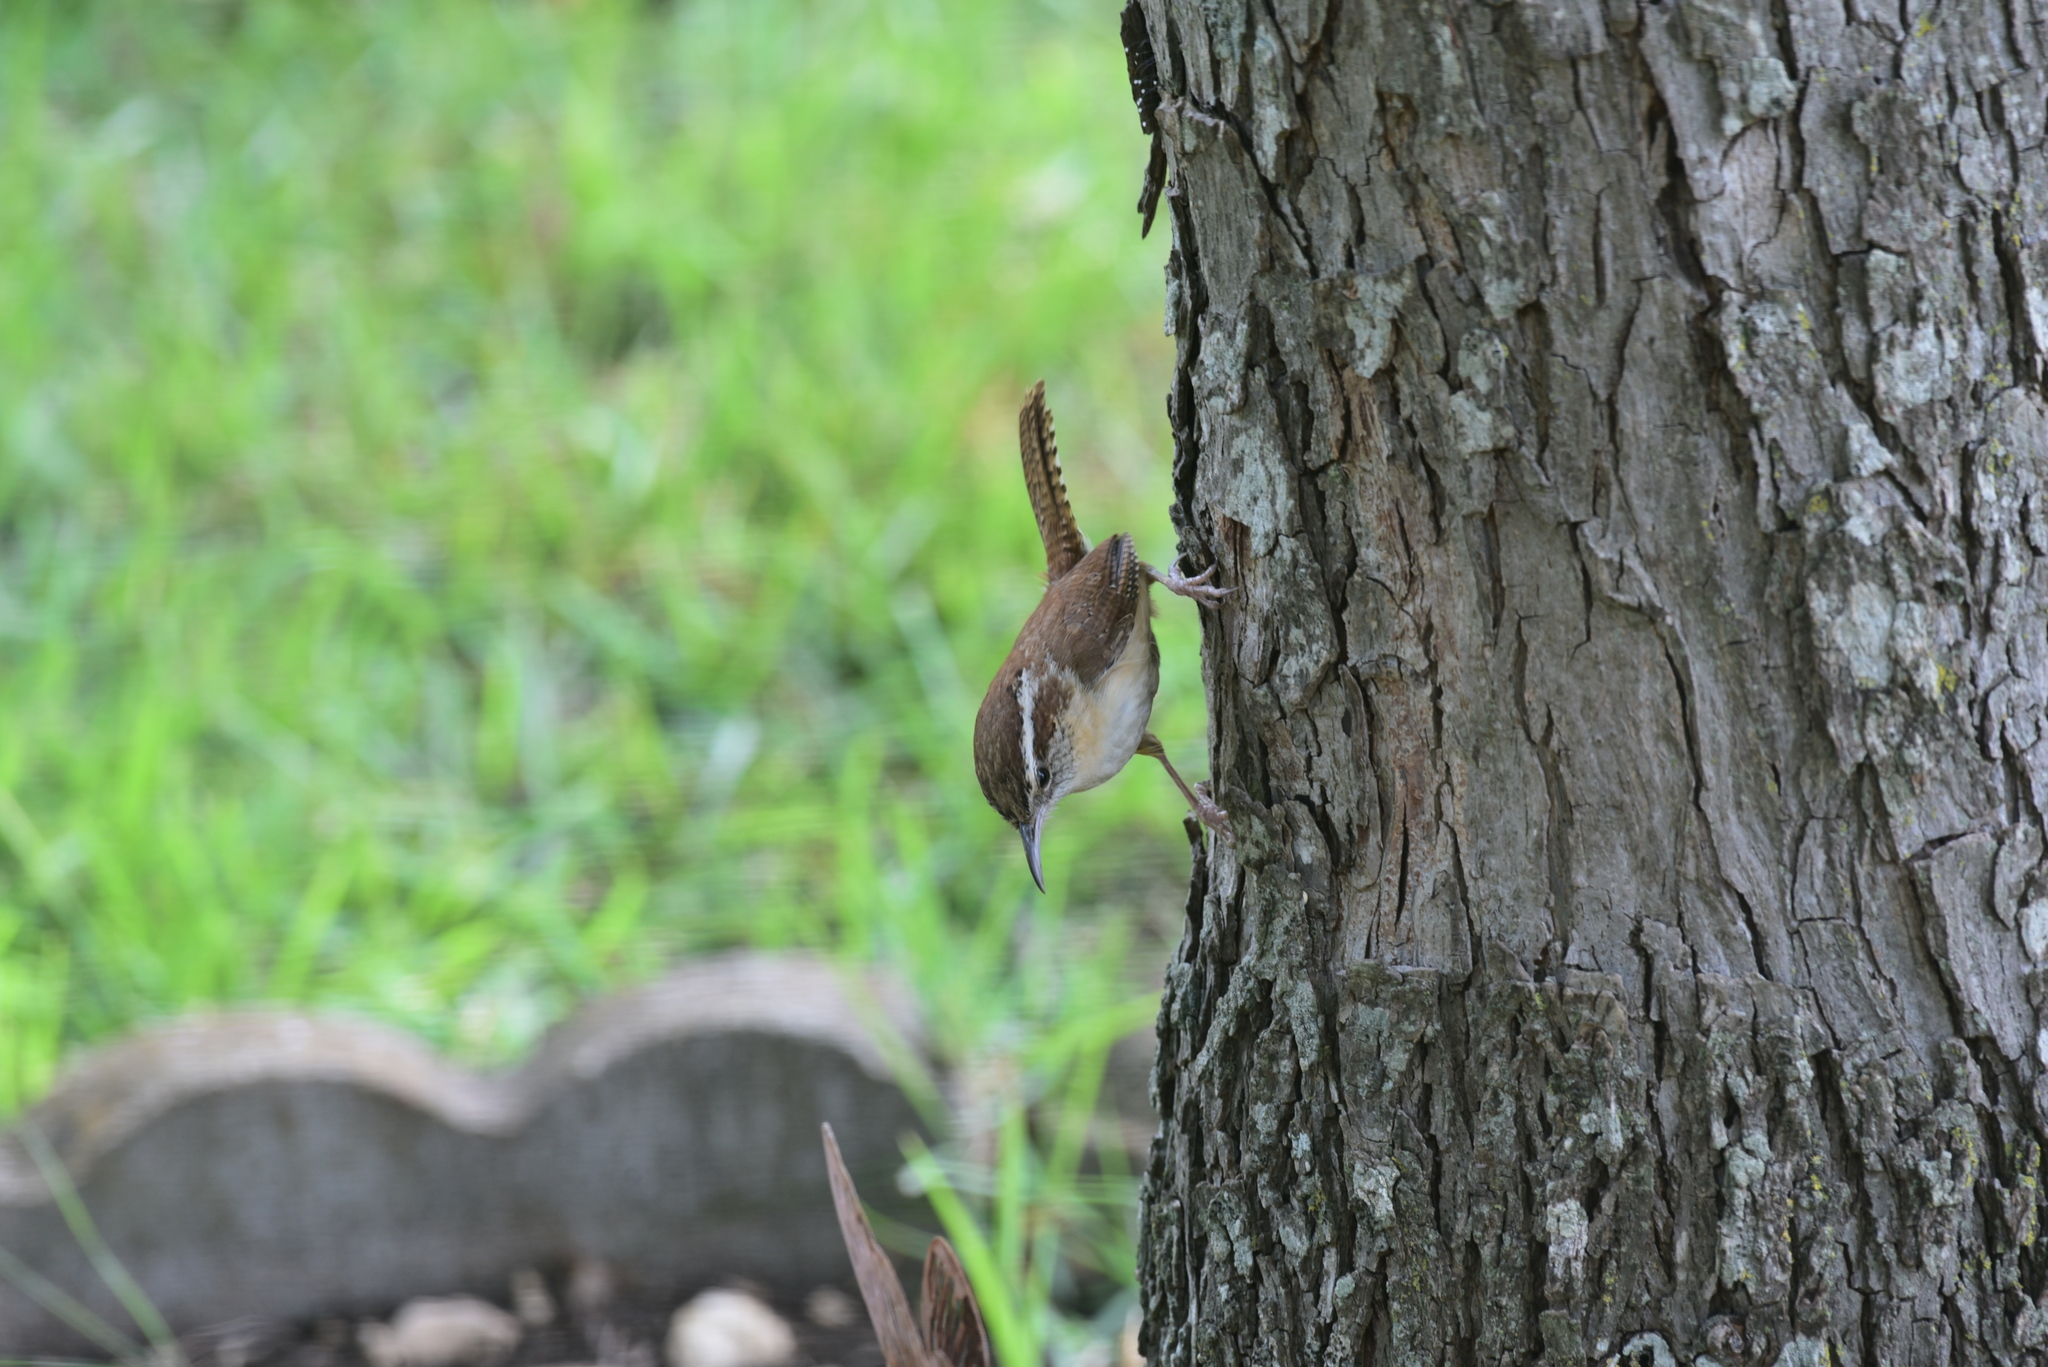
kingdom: Animalia
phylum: Chordata
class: Aves
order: Passeriformes
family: Troglodytidae
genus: Thryothorus
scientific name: Thryothorus ludovicianus
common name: Carolina wren
